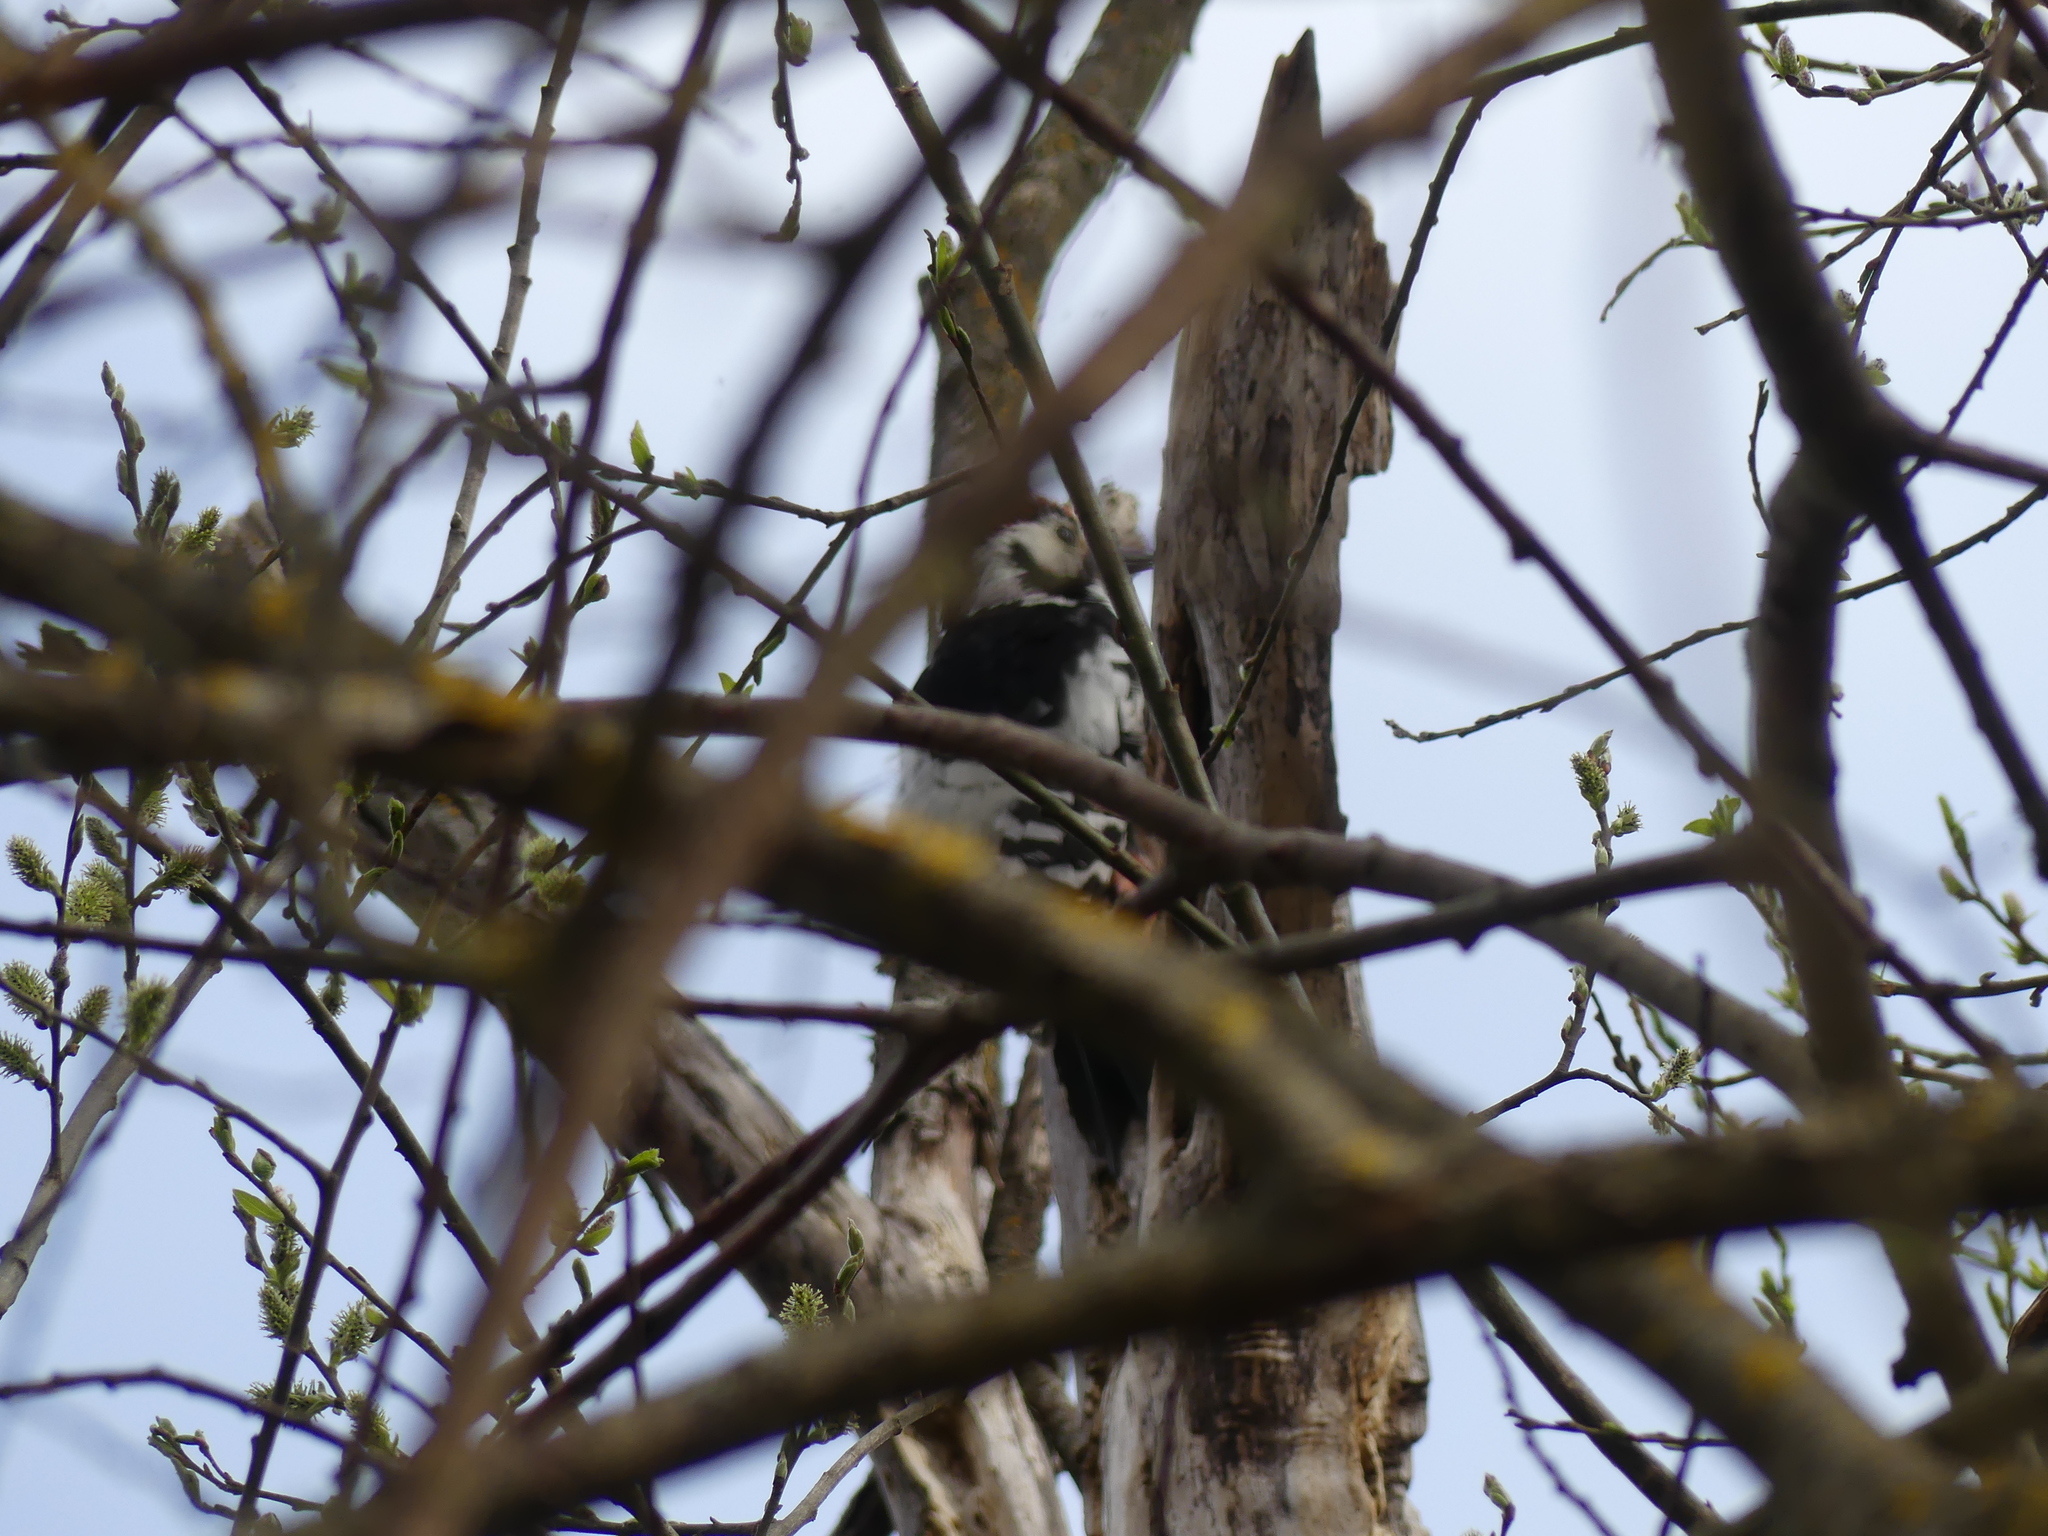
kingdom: Animalia
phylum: Chordata
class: Aves
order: Piciformes
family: Picidae
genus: Dendrocopos
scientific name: Dendrocopos leucotos
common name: White-backed woodpecker
